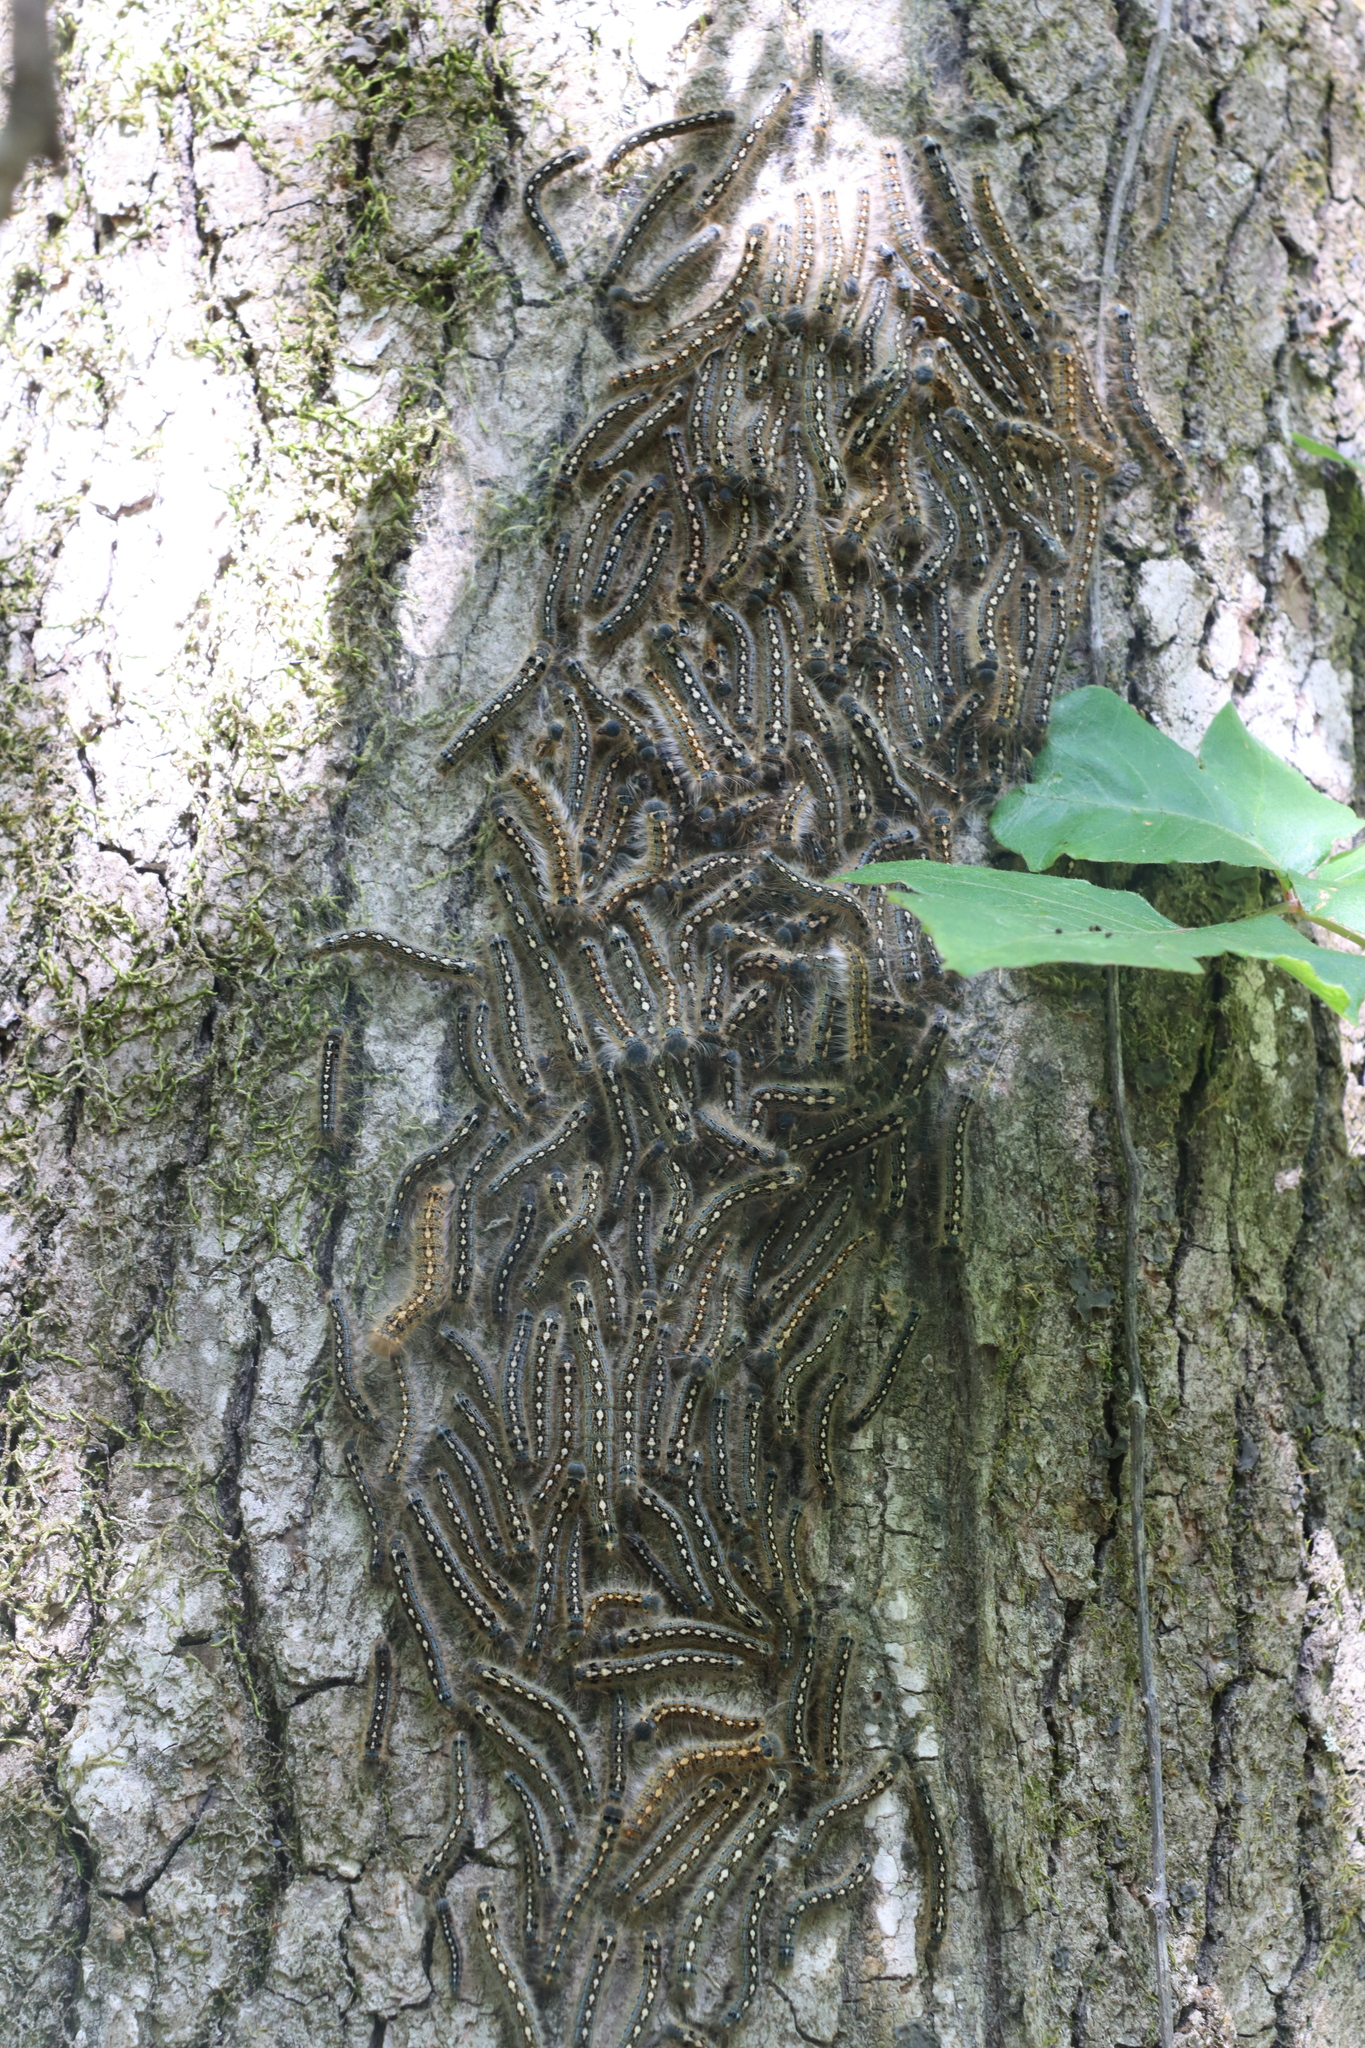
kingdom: Animalia
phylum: Arthropoda
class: Insecta
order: Lepidoptera
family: Lasiocampidae
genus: Malacosoma
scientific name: Malacosoma disstria
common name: Forest tent caterpillar
